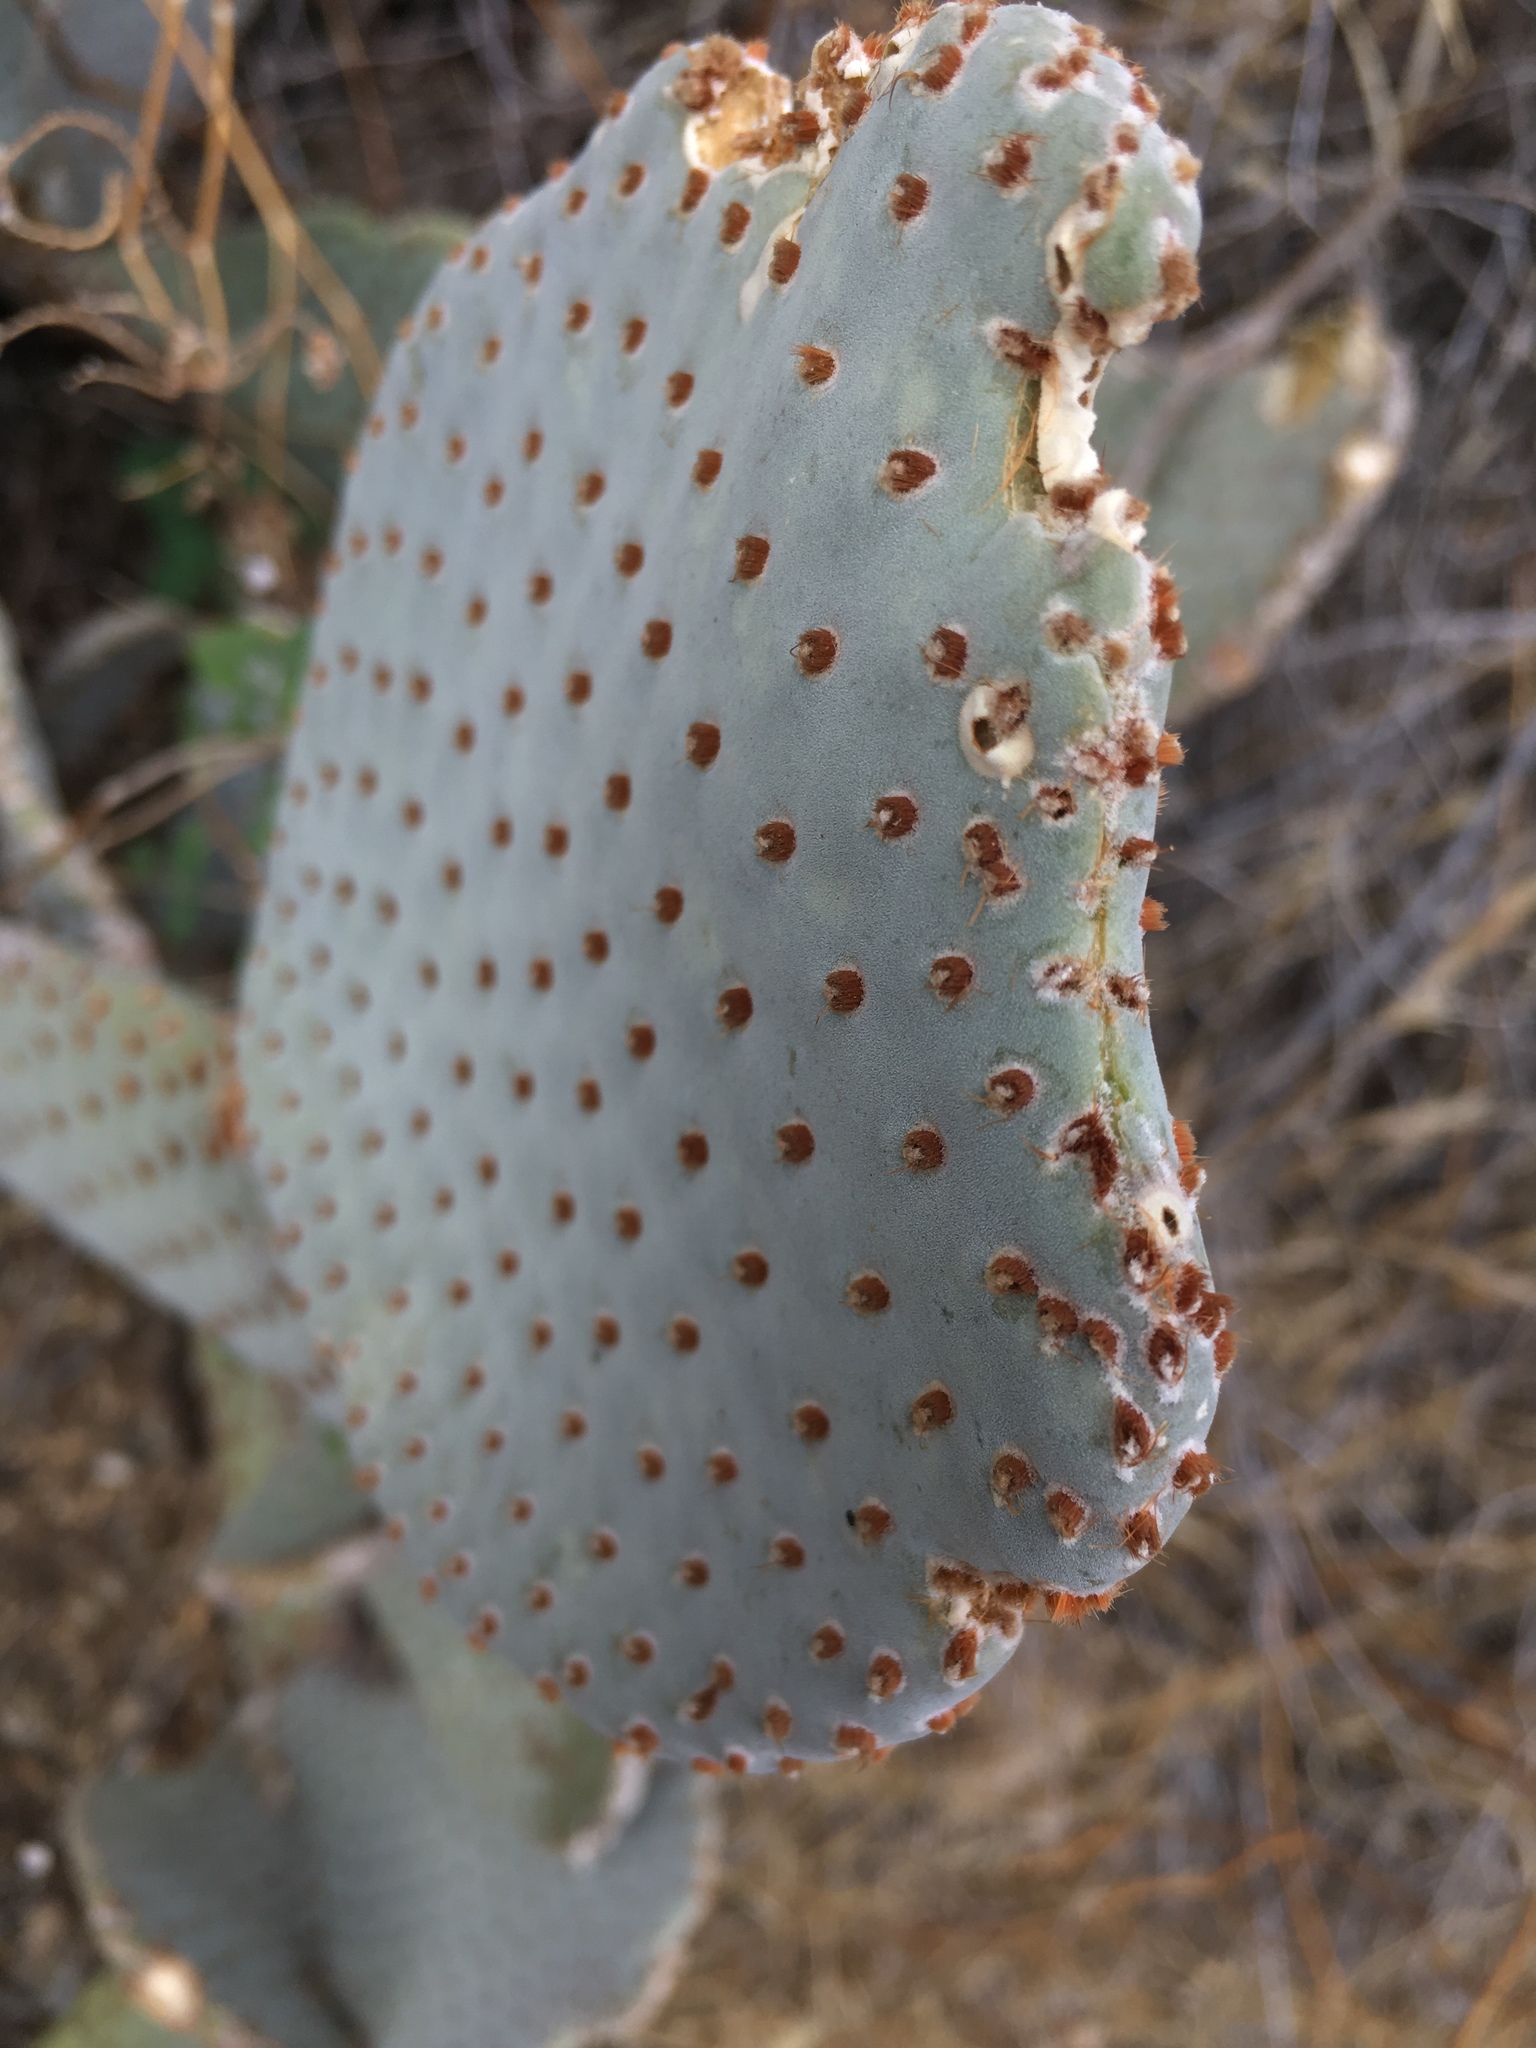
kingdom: Plantae
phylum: Tracheophyta
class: Magnoliopsida
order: Caryophyllales
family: Cactaceae
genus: Opuntia
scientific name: Opuntia basilaris
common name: Beavertail prickly-pear
